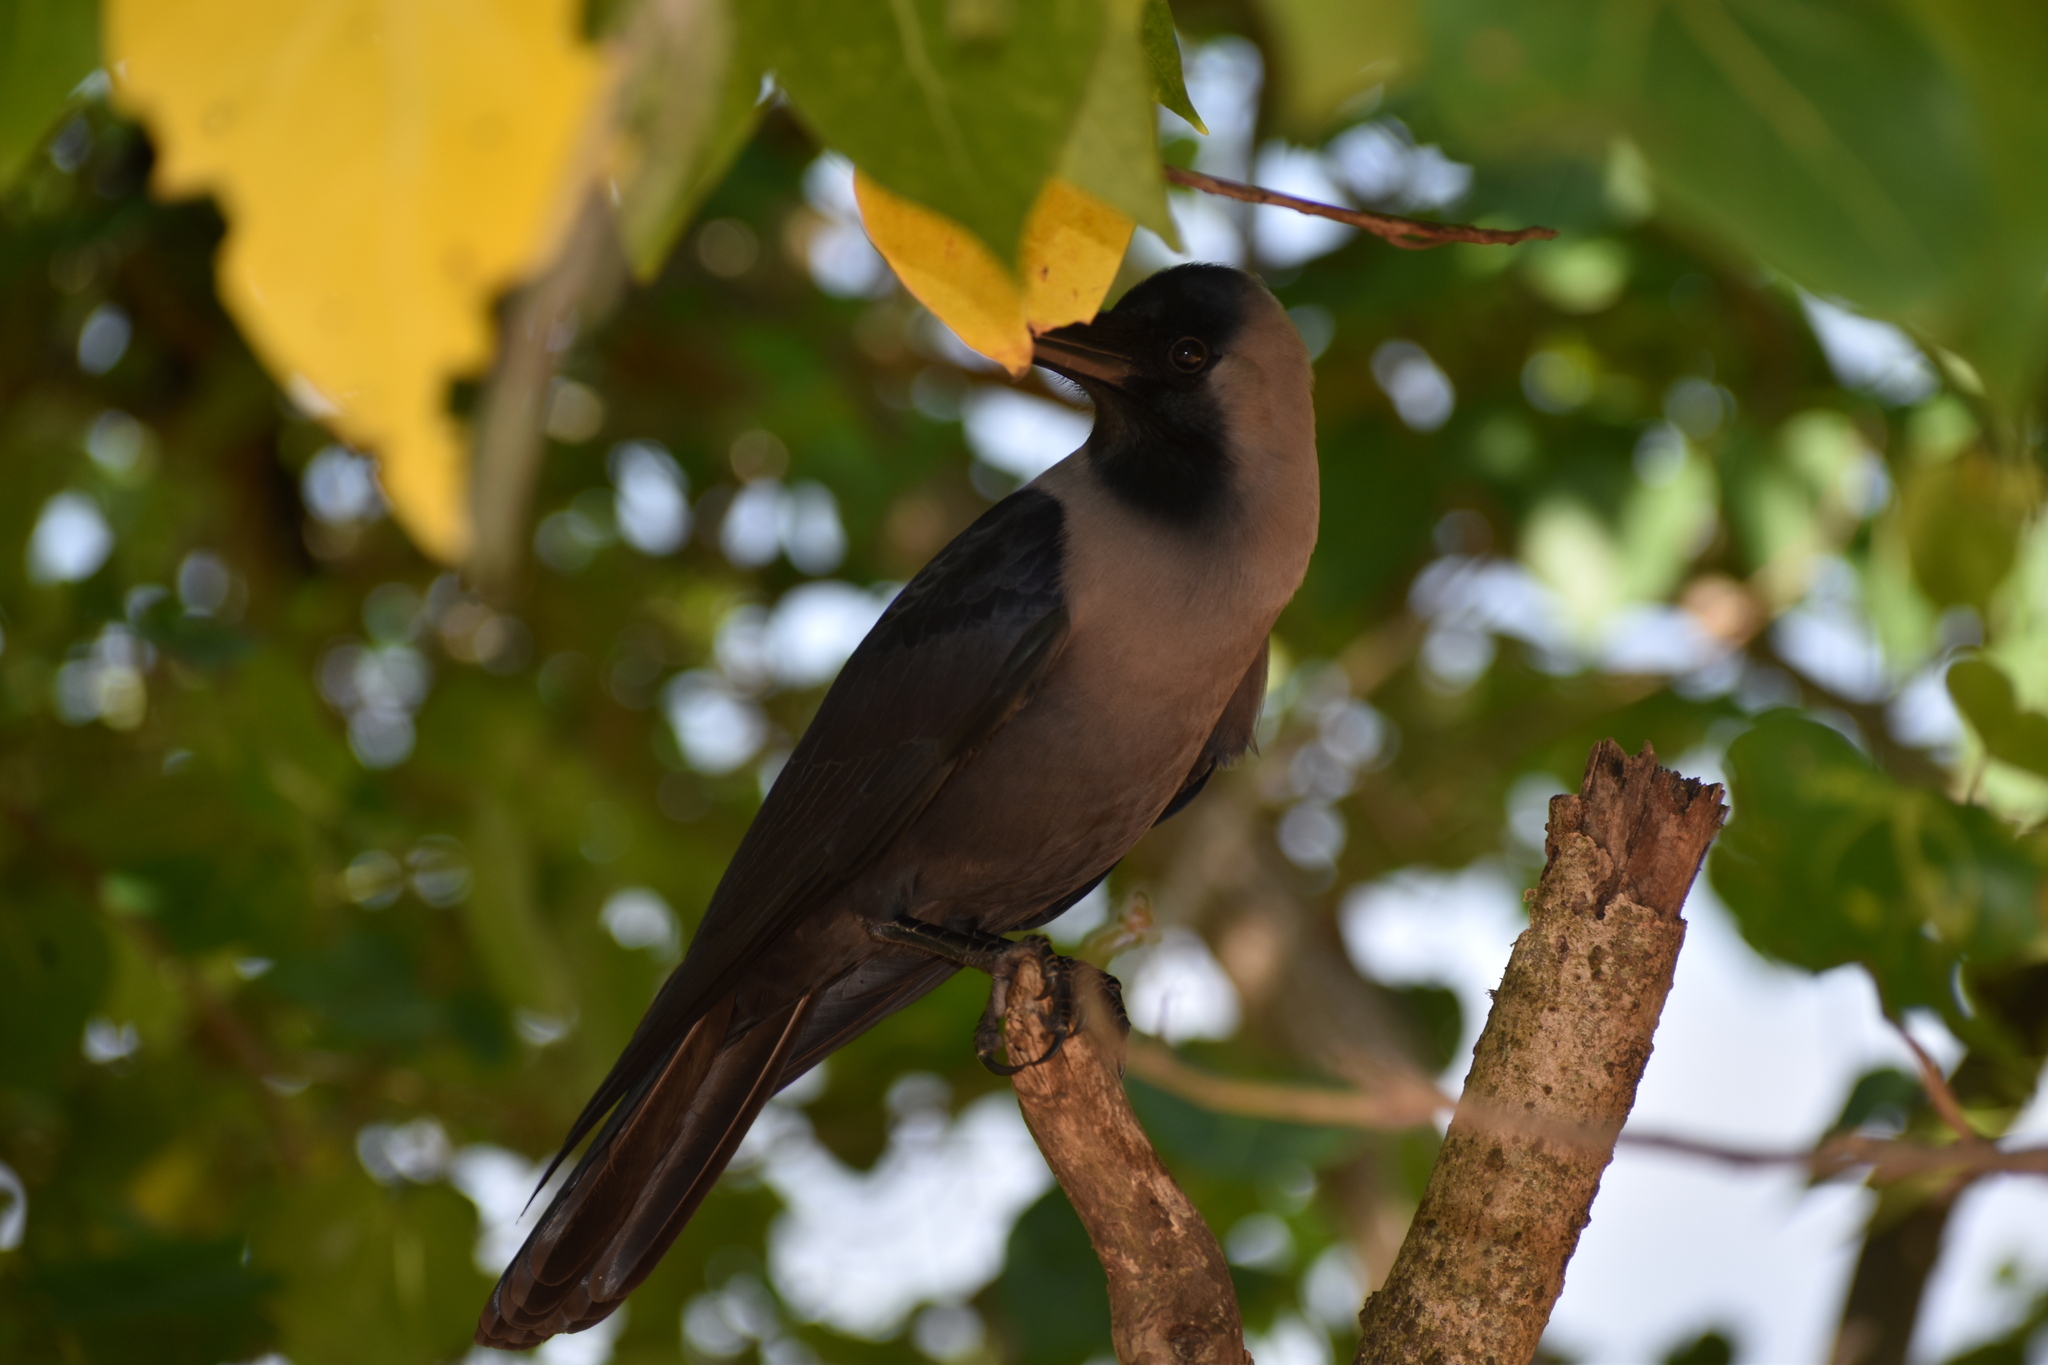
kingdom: Animalia
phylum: Chordata
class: Aves
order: Passeriformes
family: Corvidae
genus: Corvus
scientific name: Corvus splendens
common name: House crow
